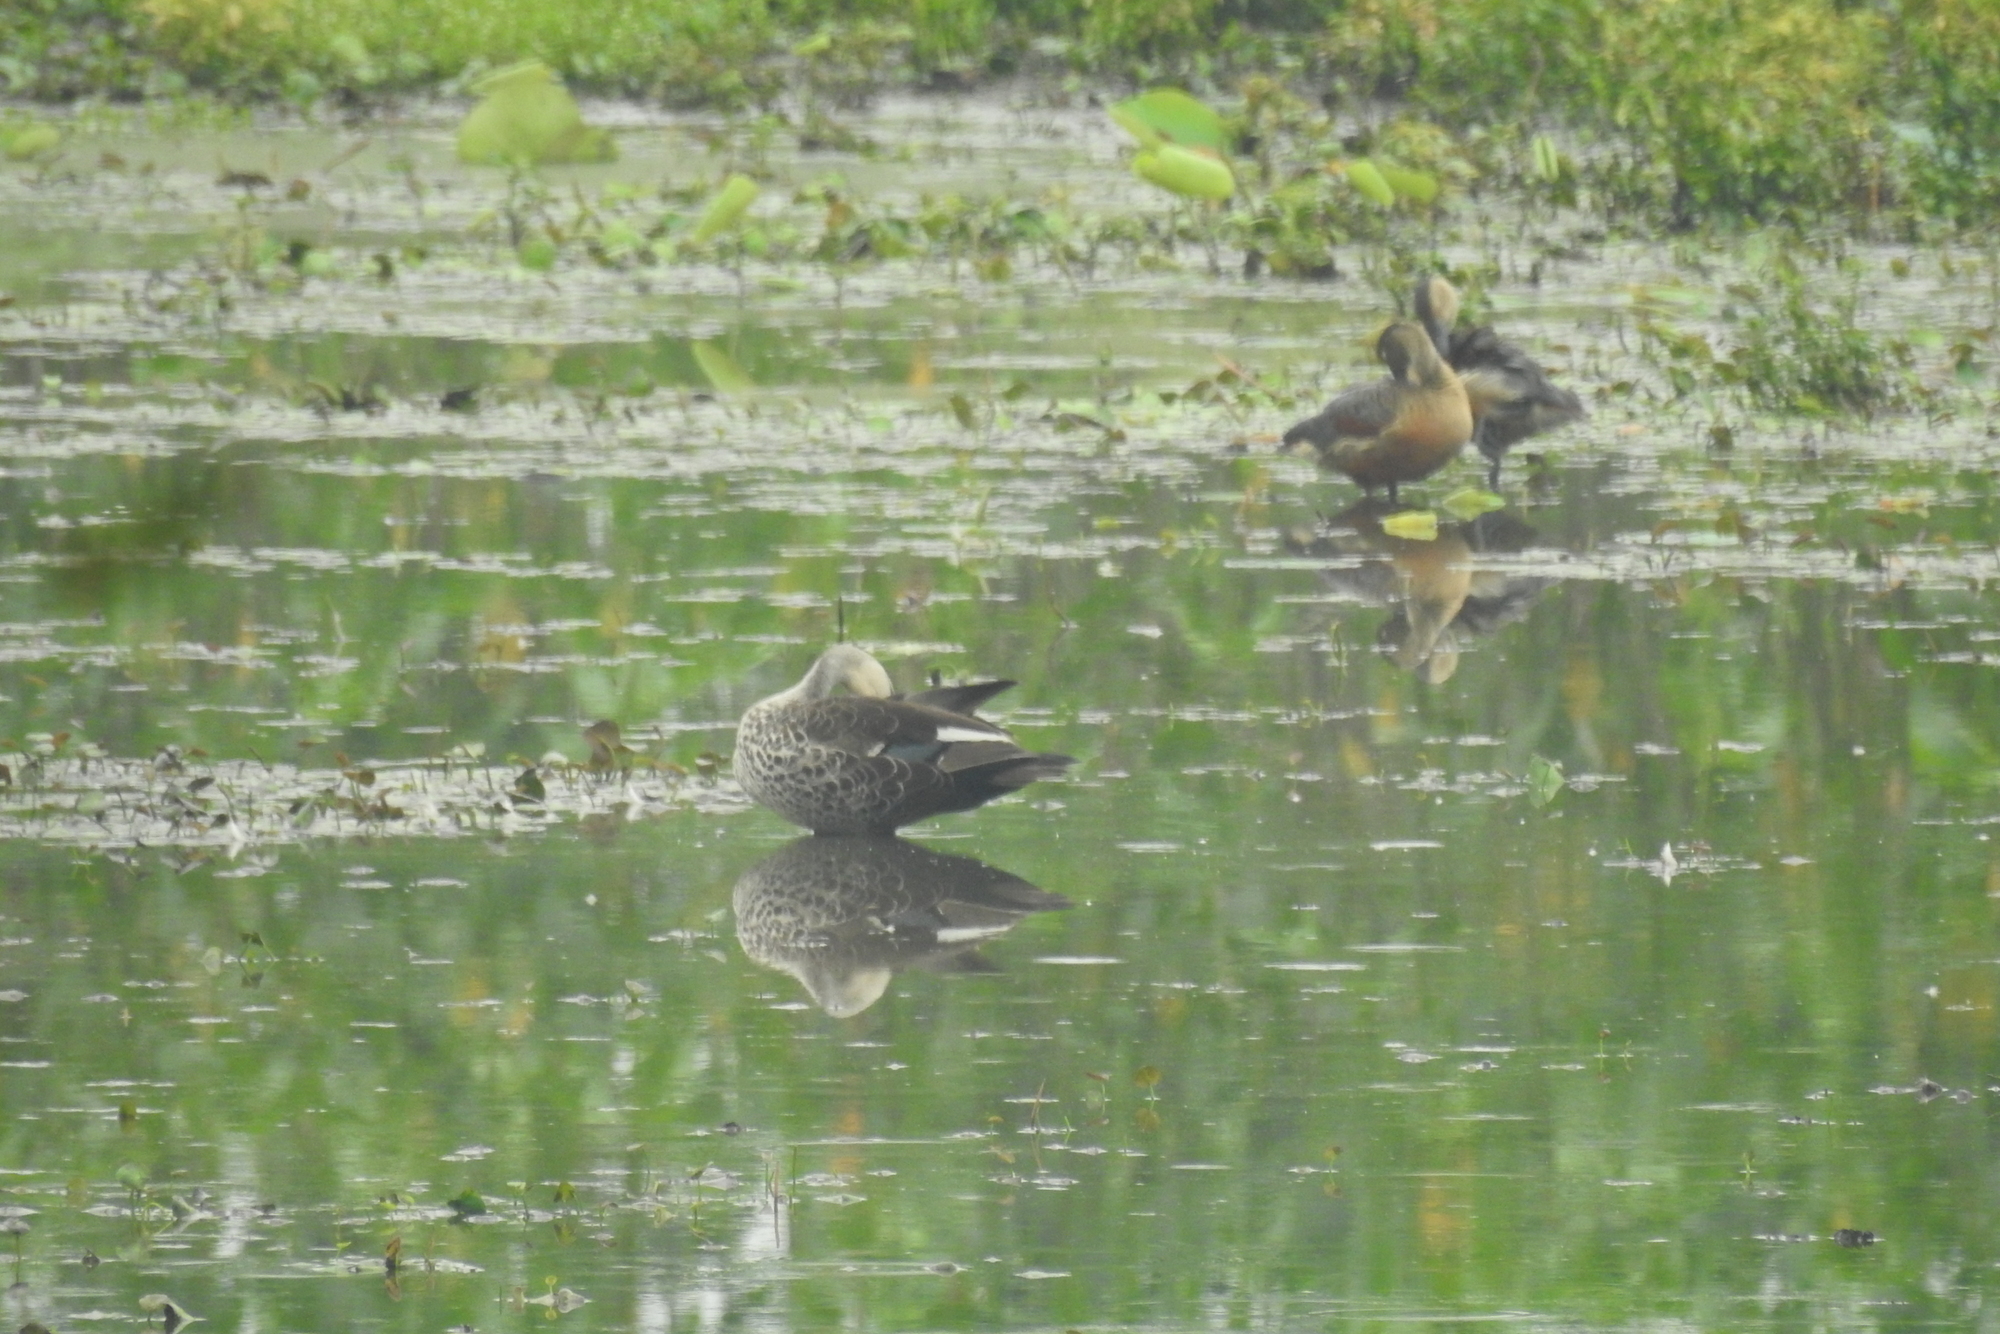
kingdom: Animalia
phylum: Chordata
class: Aves
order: Anseriformes
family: Anatidae
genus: Anas
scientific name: Anas poecilorhyncha
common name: Indian spot-billed duck
